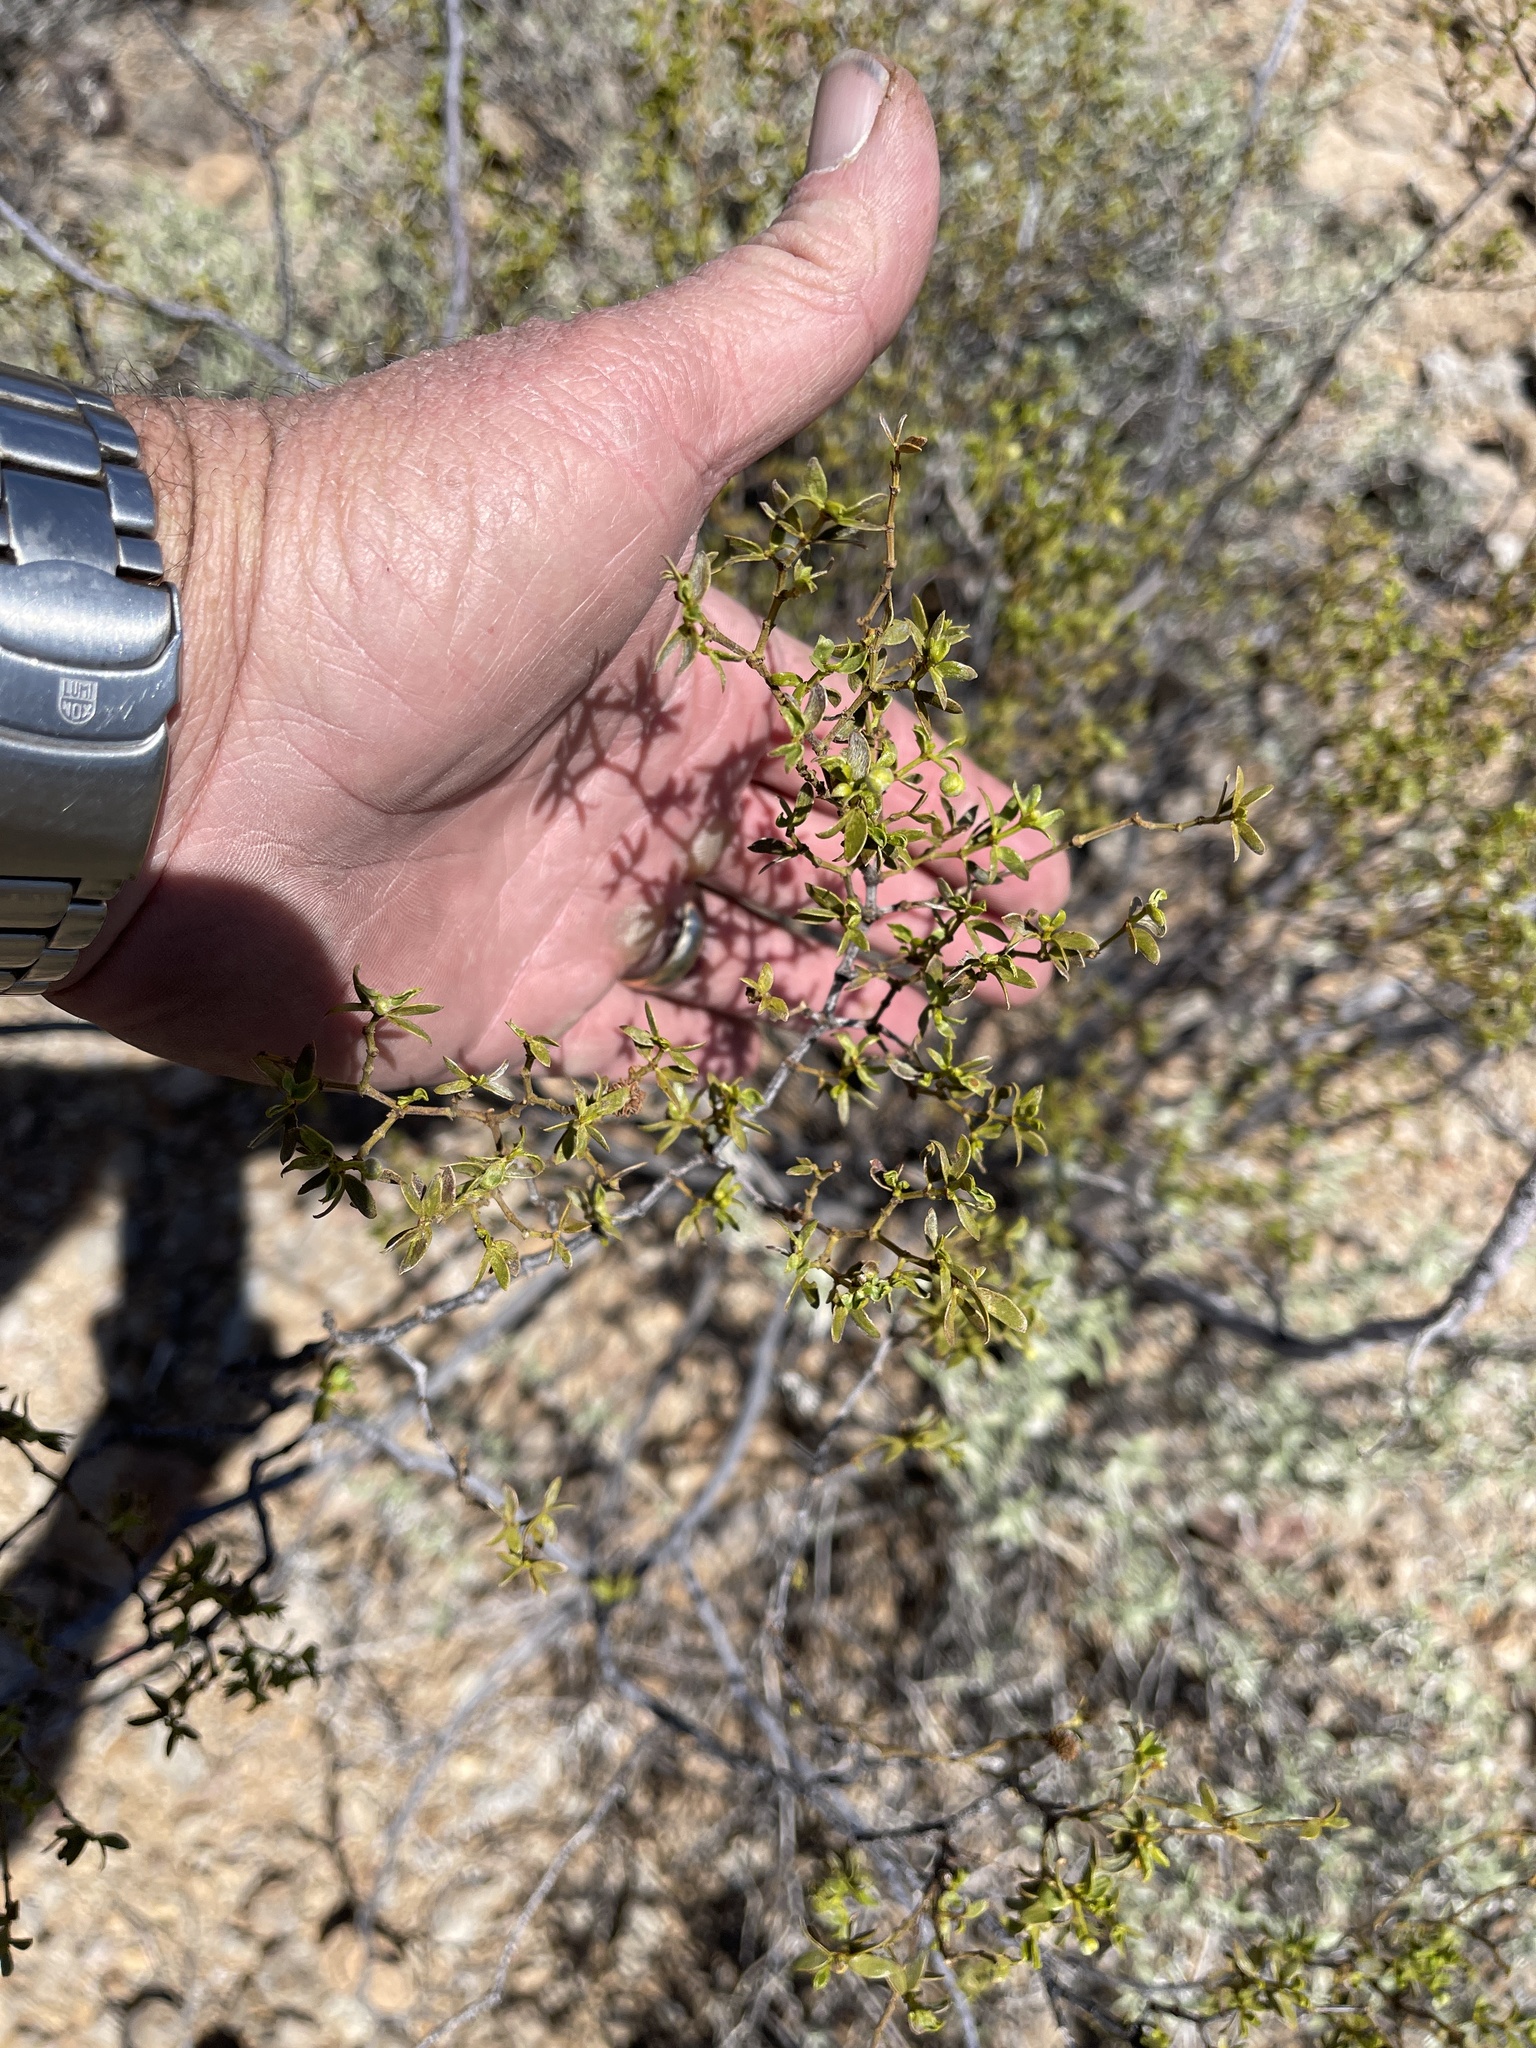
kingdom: Plantae
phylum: Tracheophyta
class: Magnoliopsida
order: Zygophyllales
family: Zygophyllaceae
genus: Larrea
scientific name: Larrea tridentata
